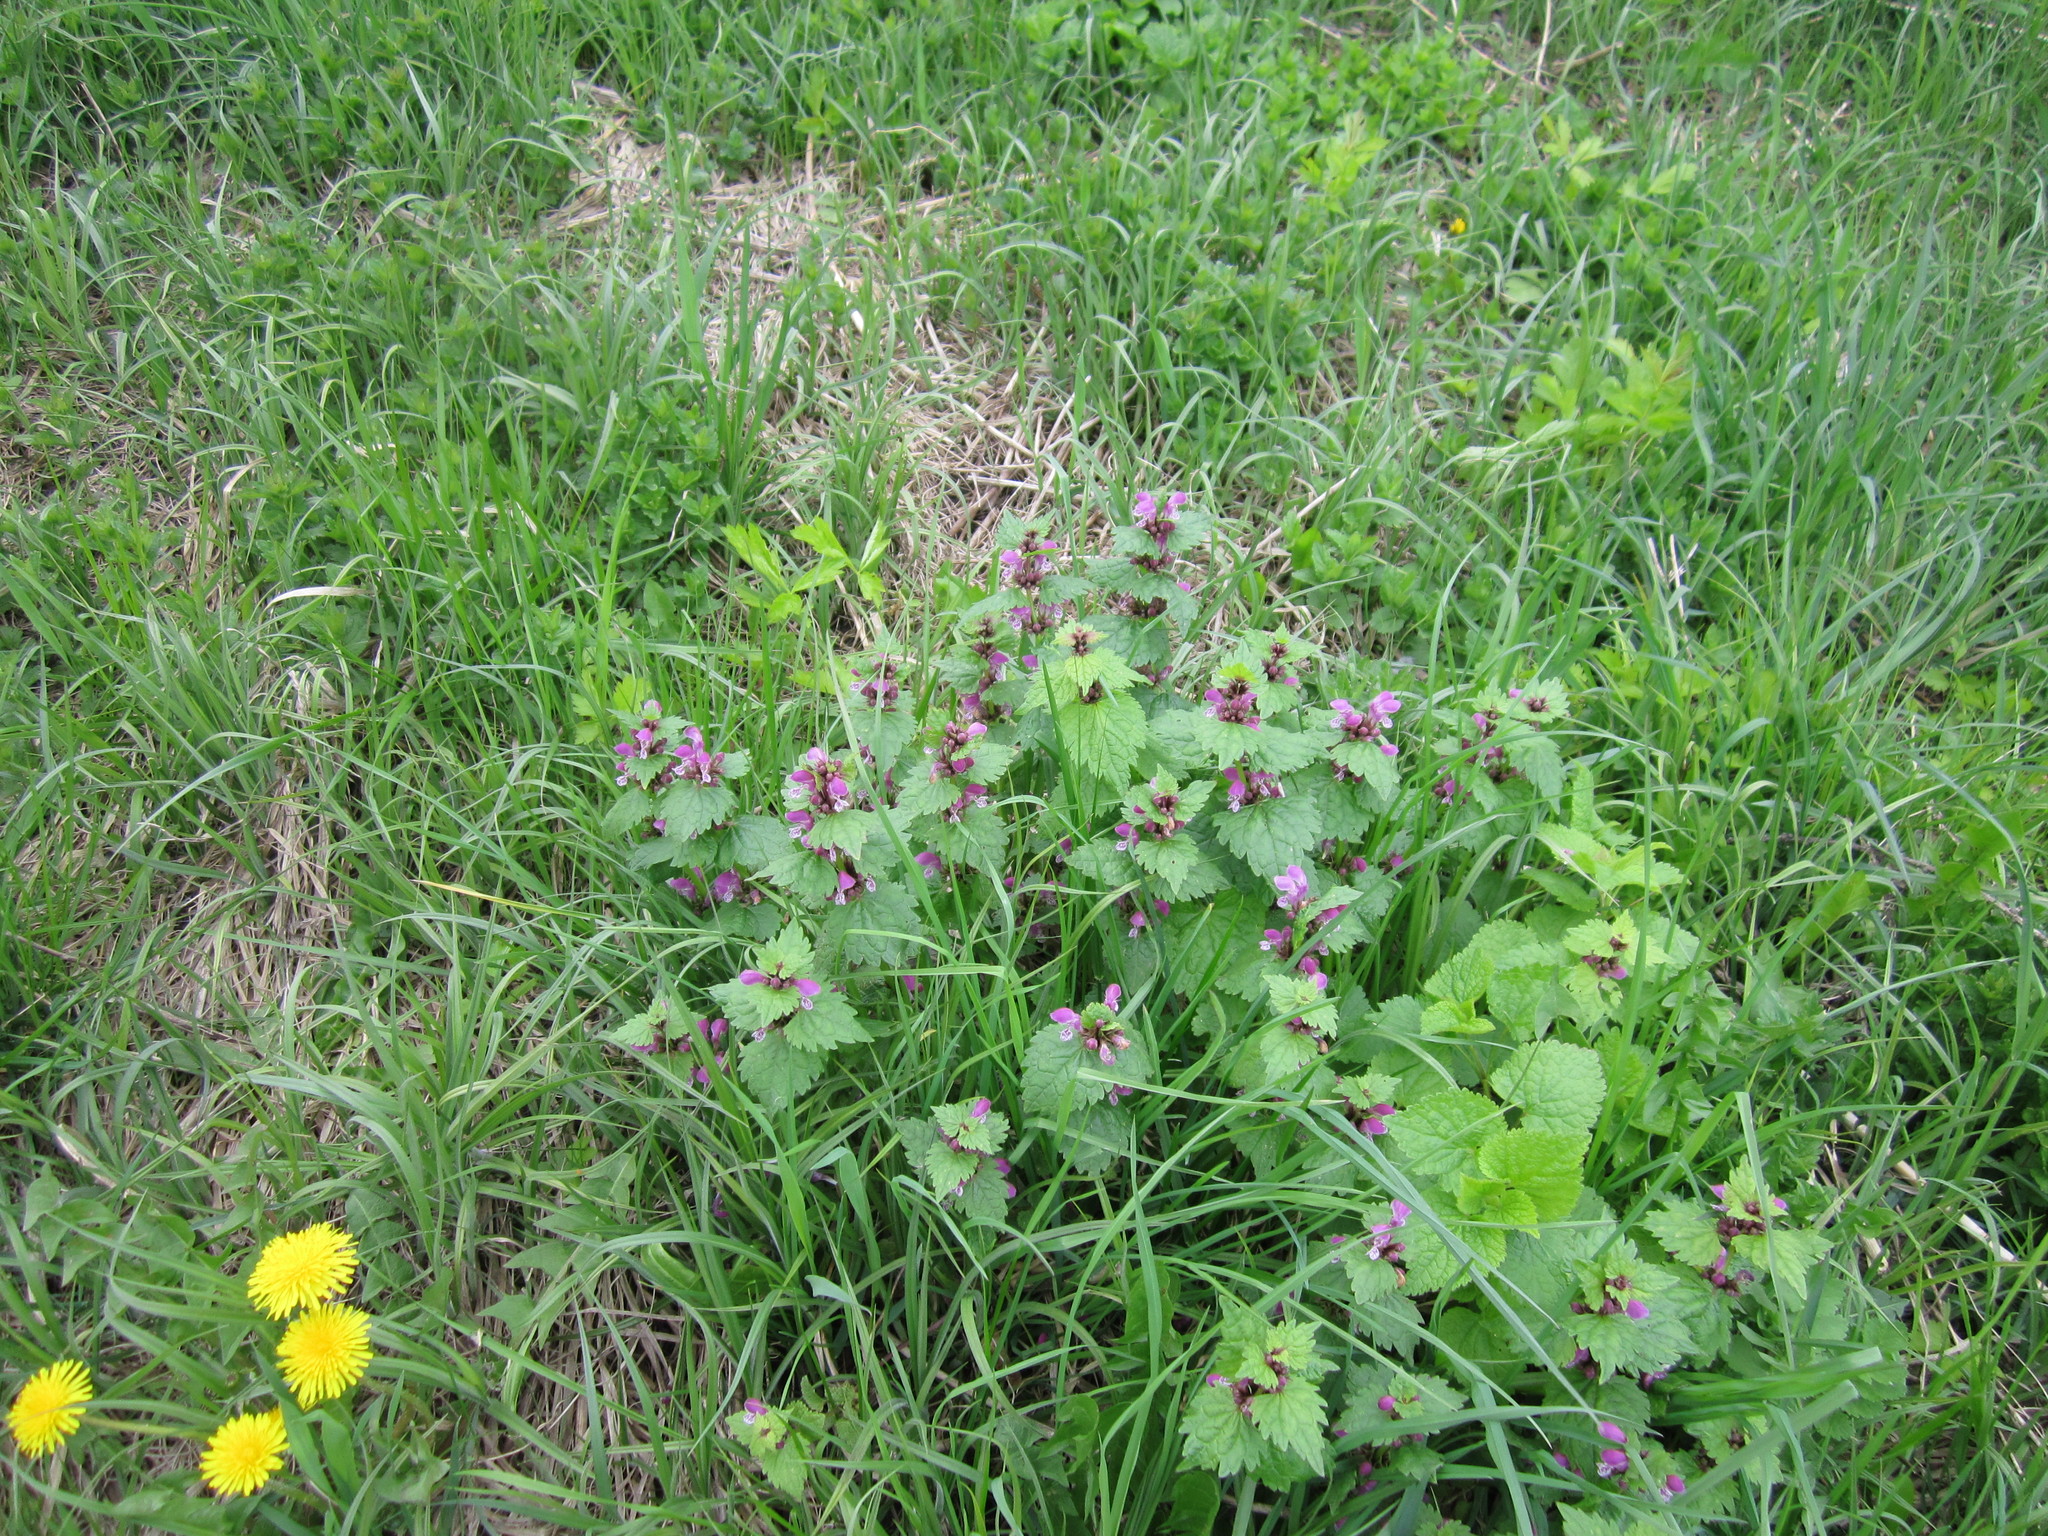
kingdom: Plantae
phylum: Tracheophyta
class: Magnoliopsida
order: Lamiales
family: Lamiaceae
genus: Lamium
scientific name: Lamium purpureum
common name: Red dead-nettle
